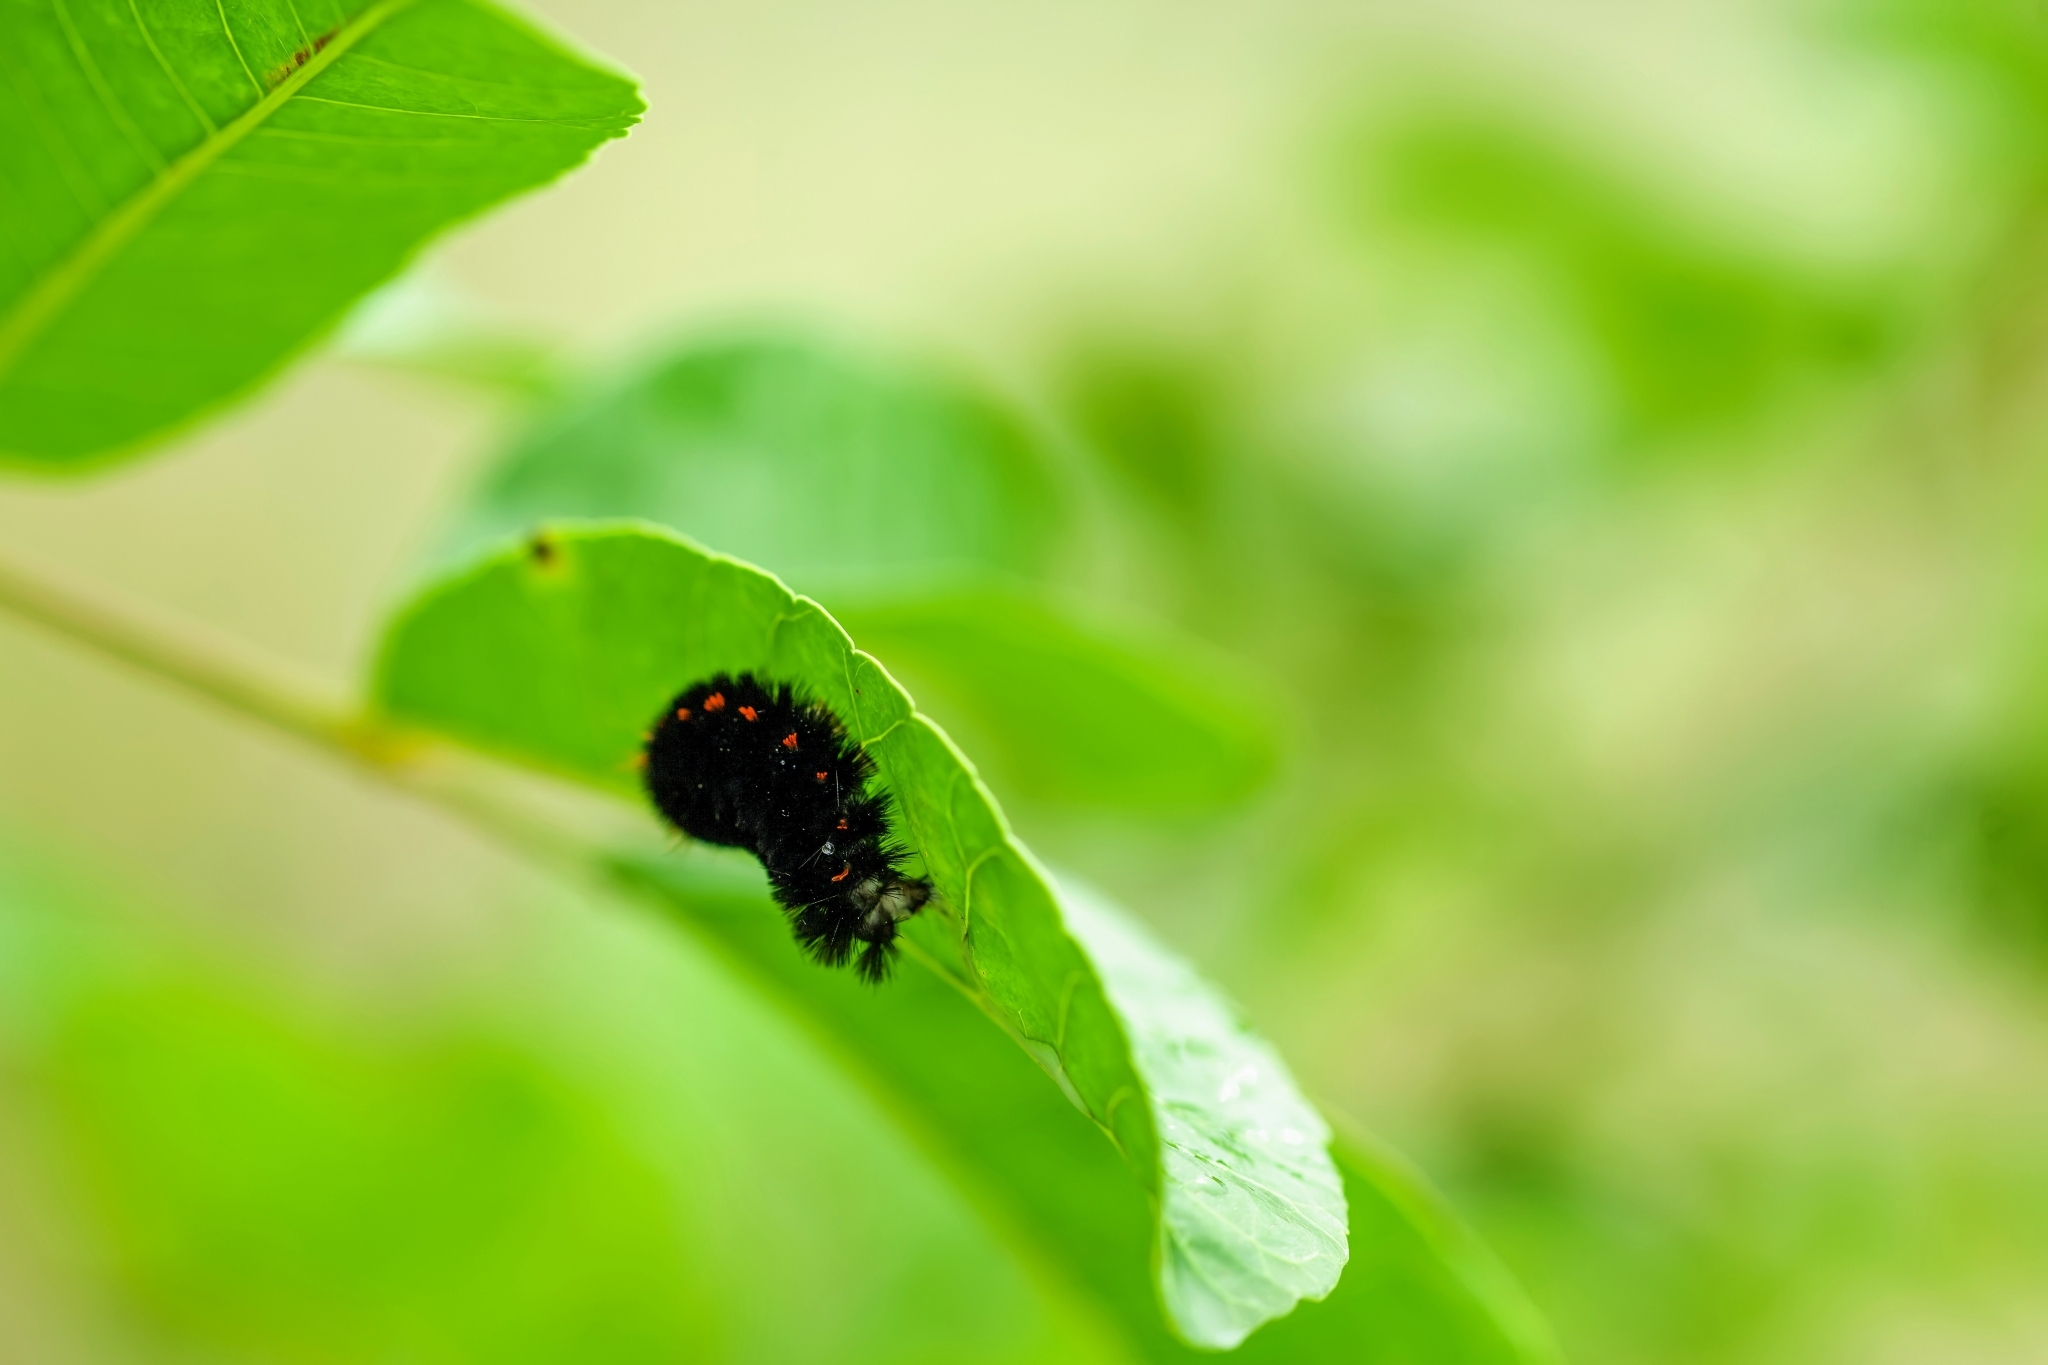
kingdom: Animalia
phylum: Arthropoda
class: Insecta
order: Lepidoptera
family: Erebidae
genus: Spilosoma
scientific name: Spilosoma congrua
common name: Agreeable tiger moth
